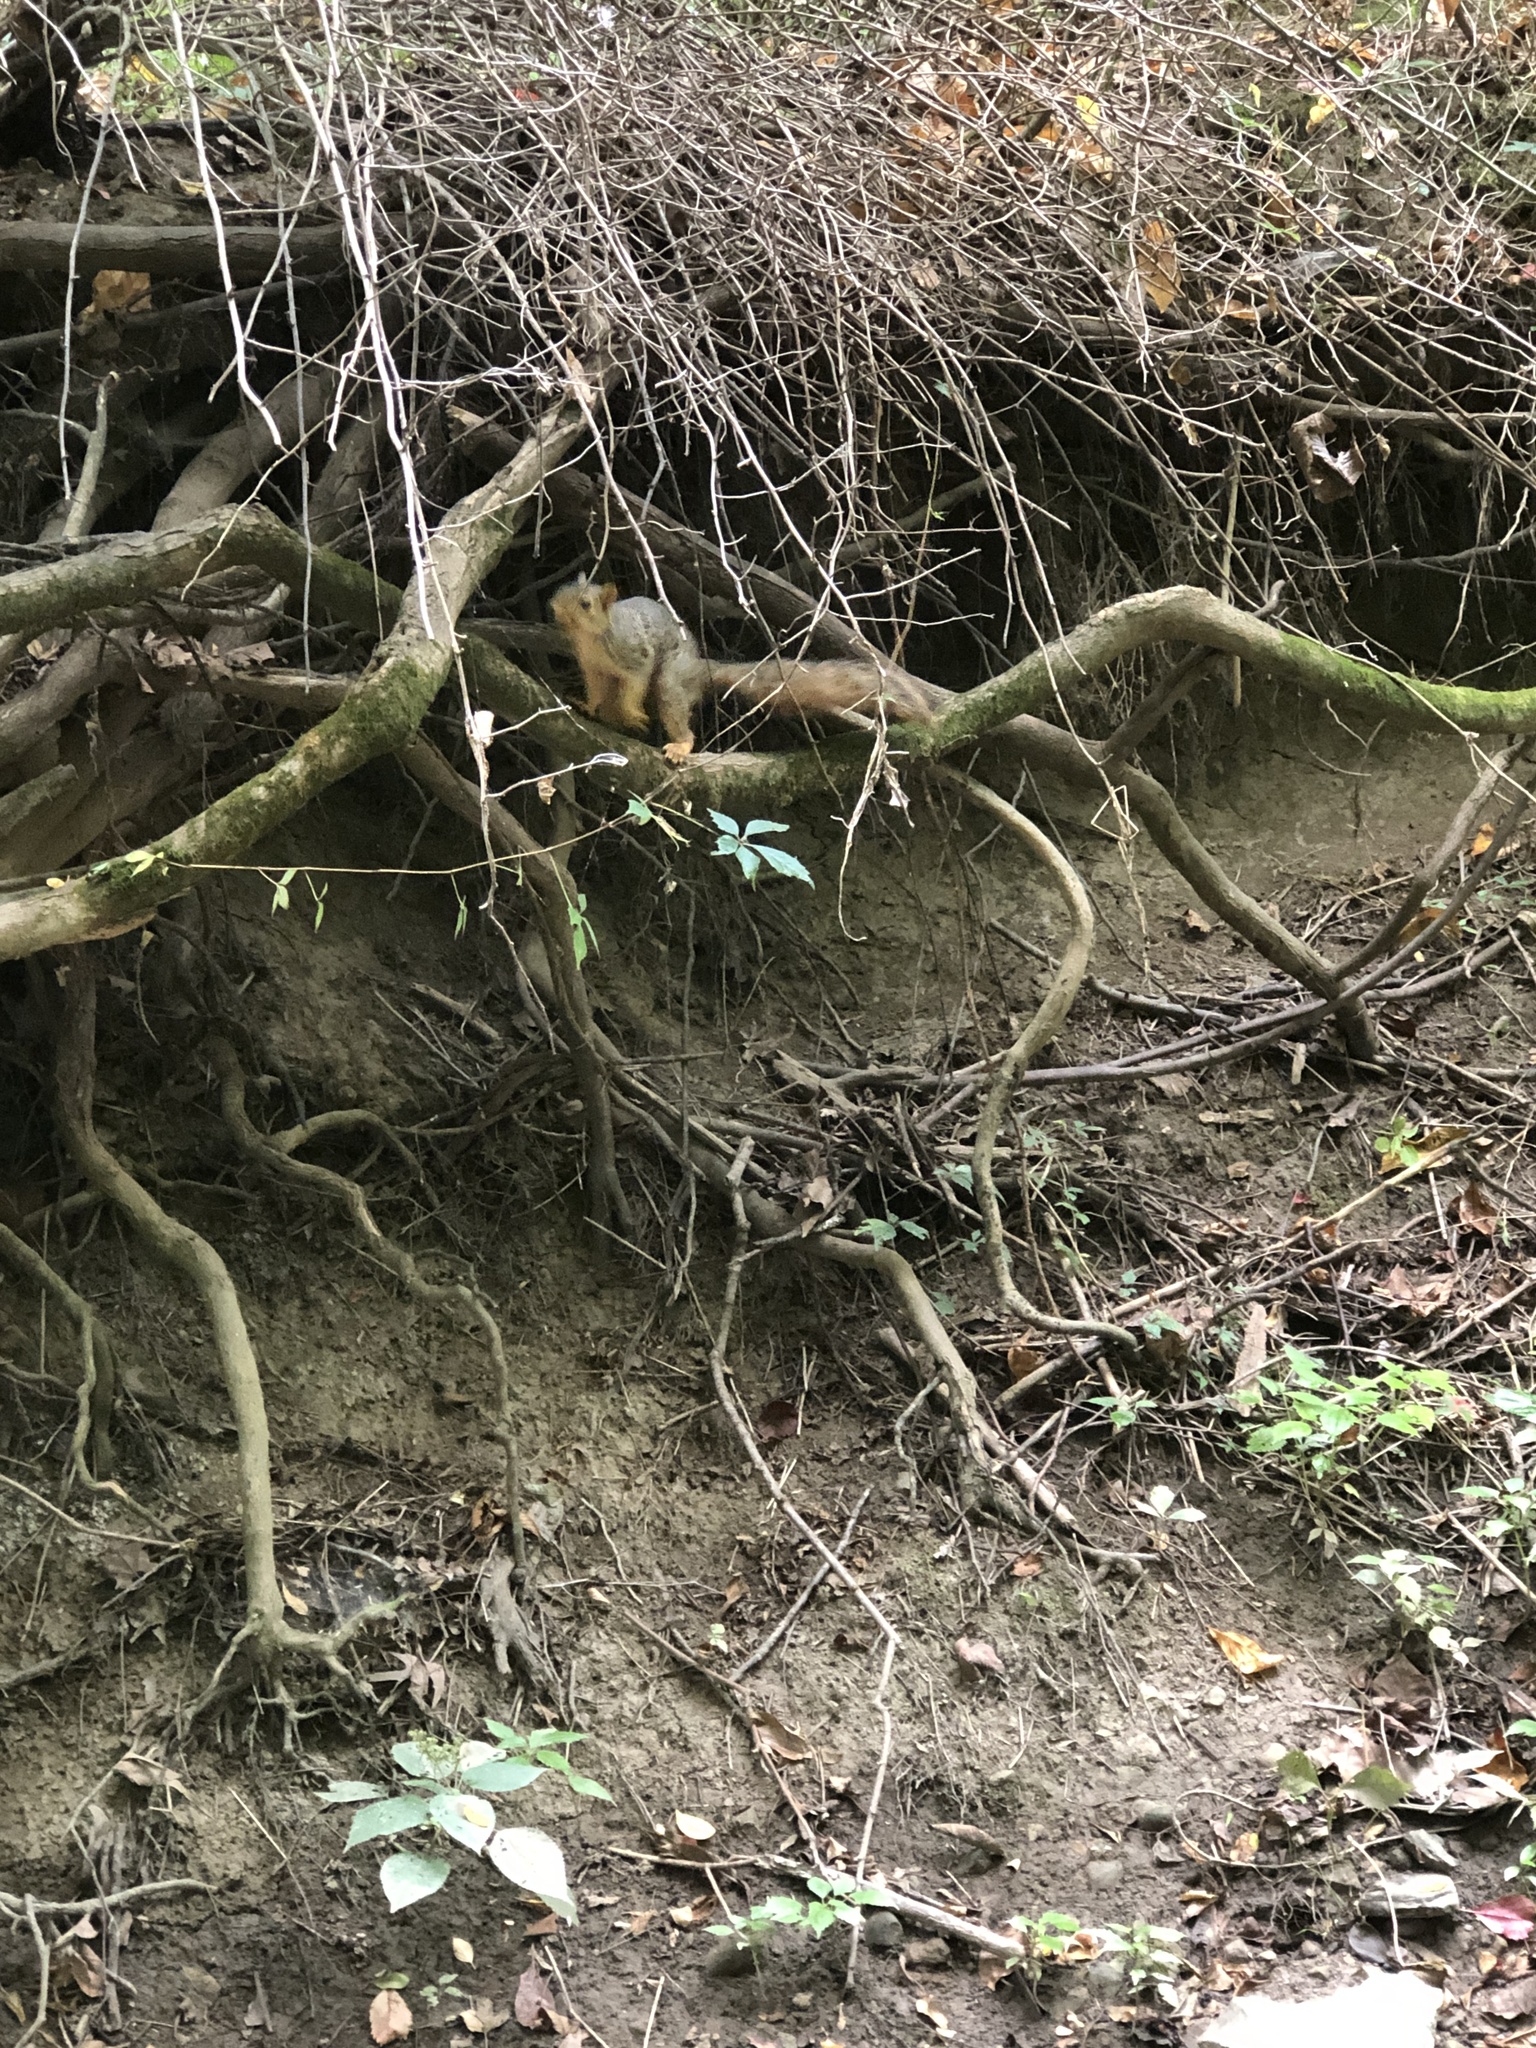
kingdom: Animalia
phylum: Chordata
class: Mammalia
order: Rodentia
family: Sciuridae
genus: Sciurus
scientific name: Sciurus niger
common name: Fox squirrel
